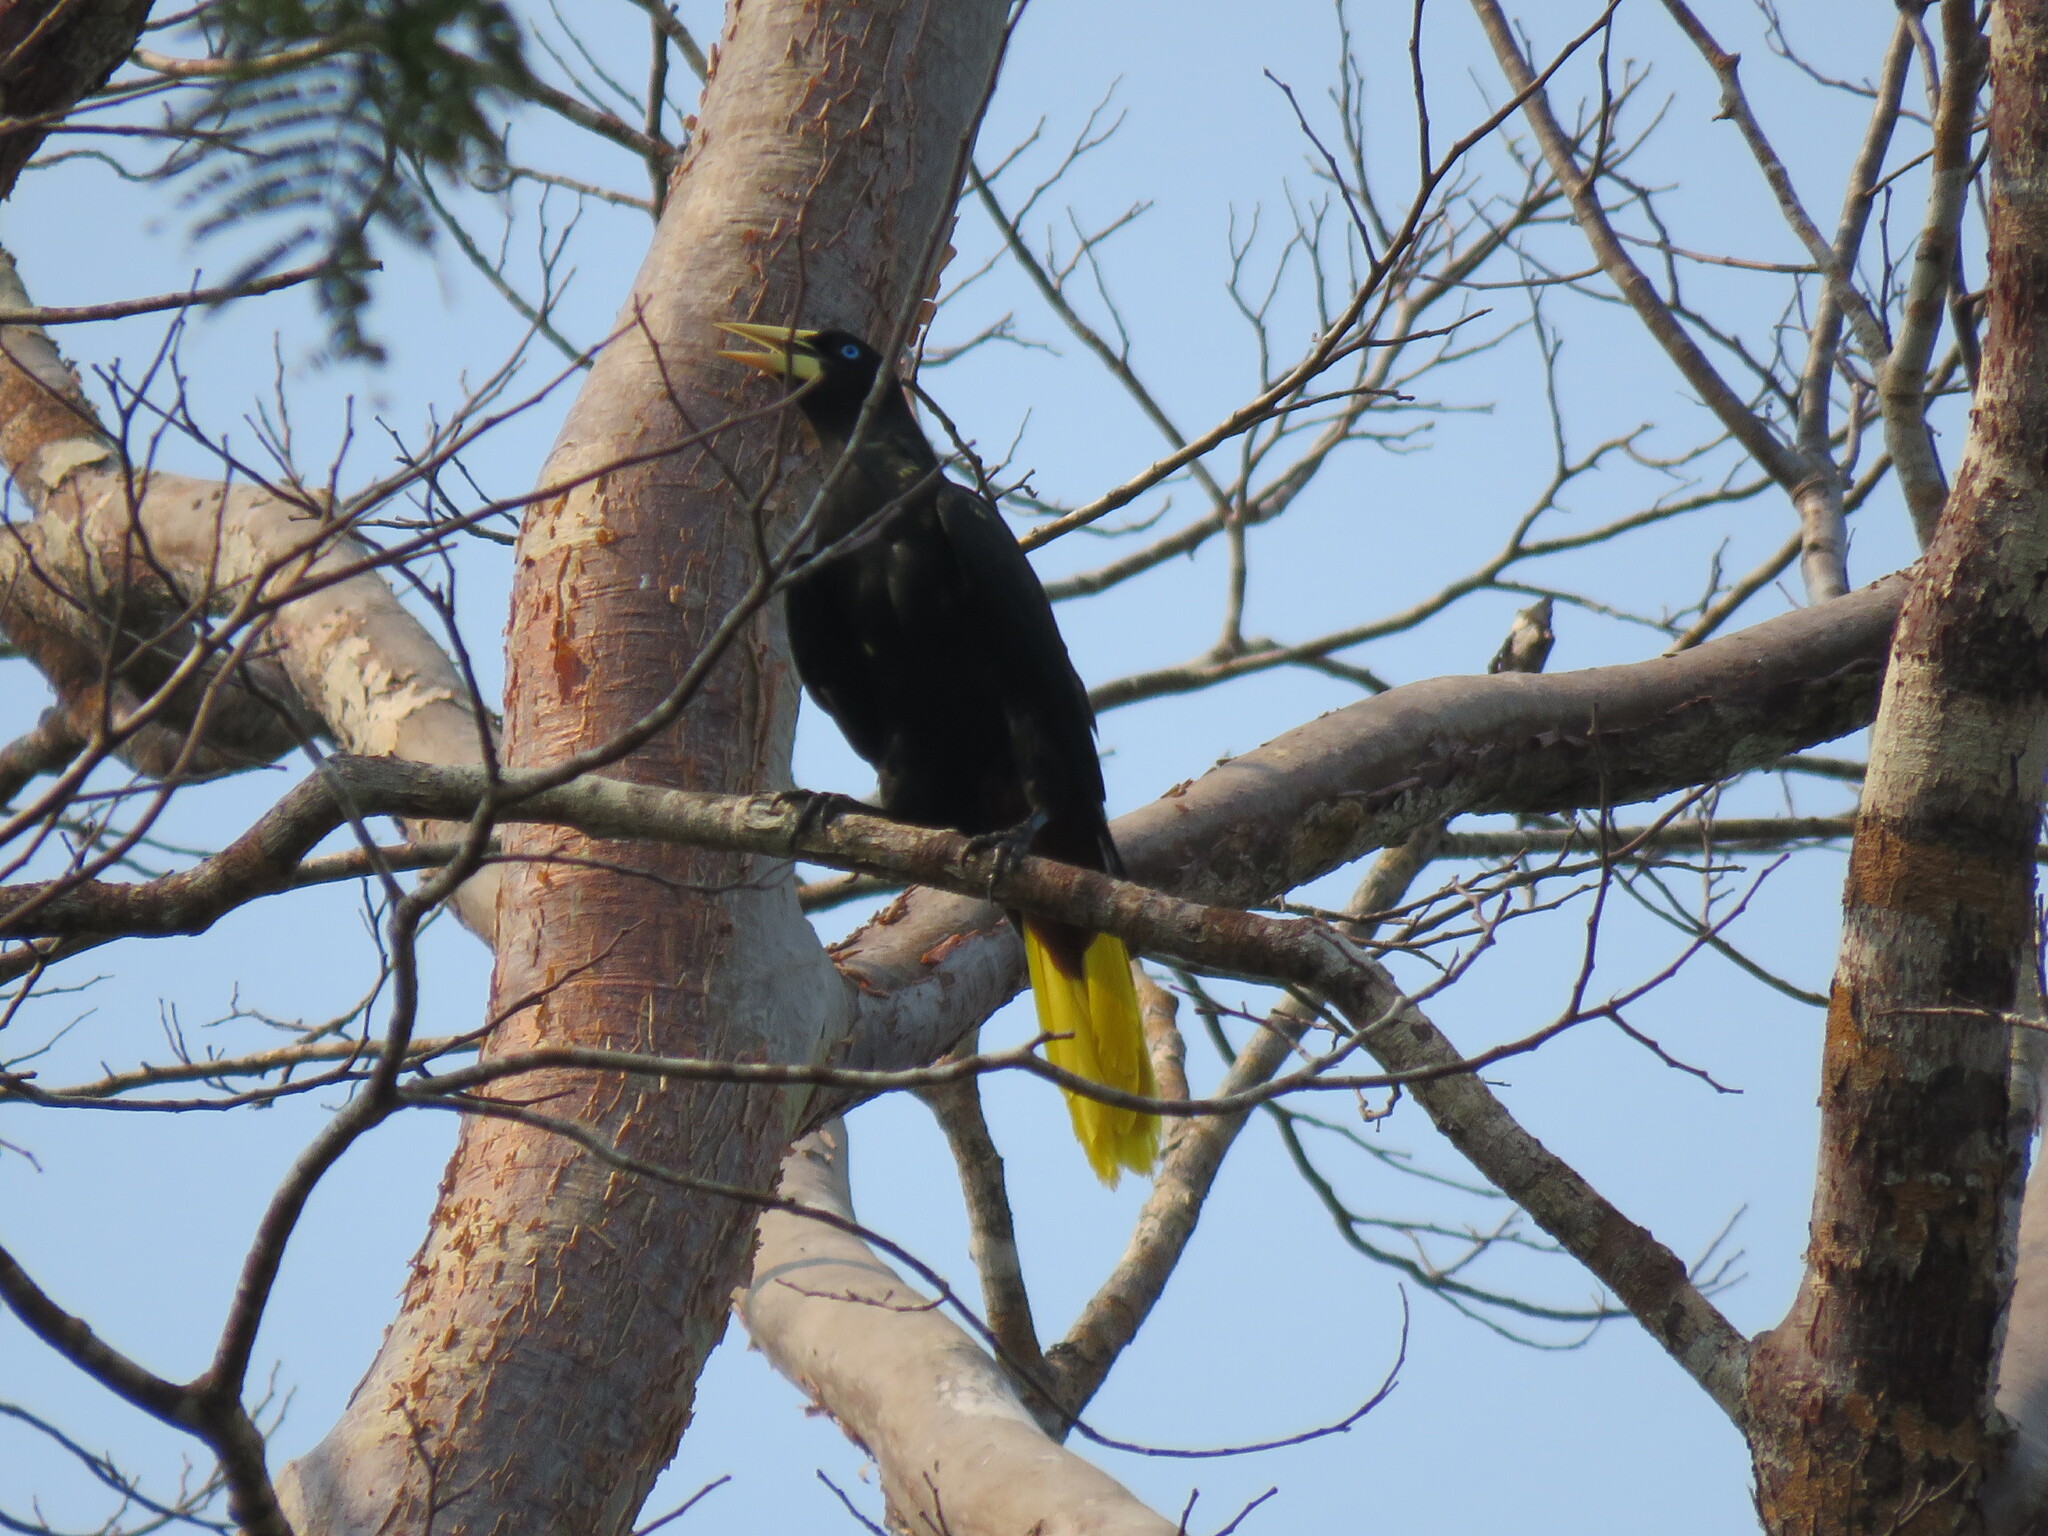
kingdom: Animalia
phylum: Chordata
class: Aves
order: Passeriformes
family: Icteridae
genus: Psarocolius
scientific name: Psarocolius decumanus
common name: Crested oropendola
